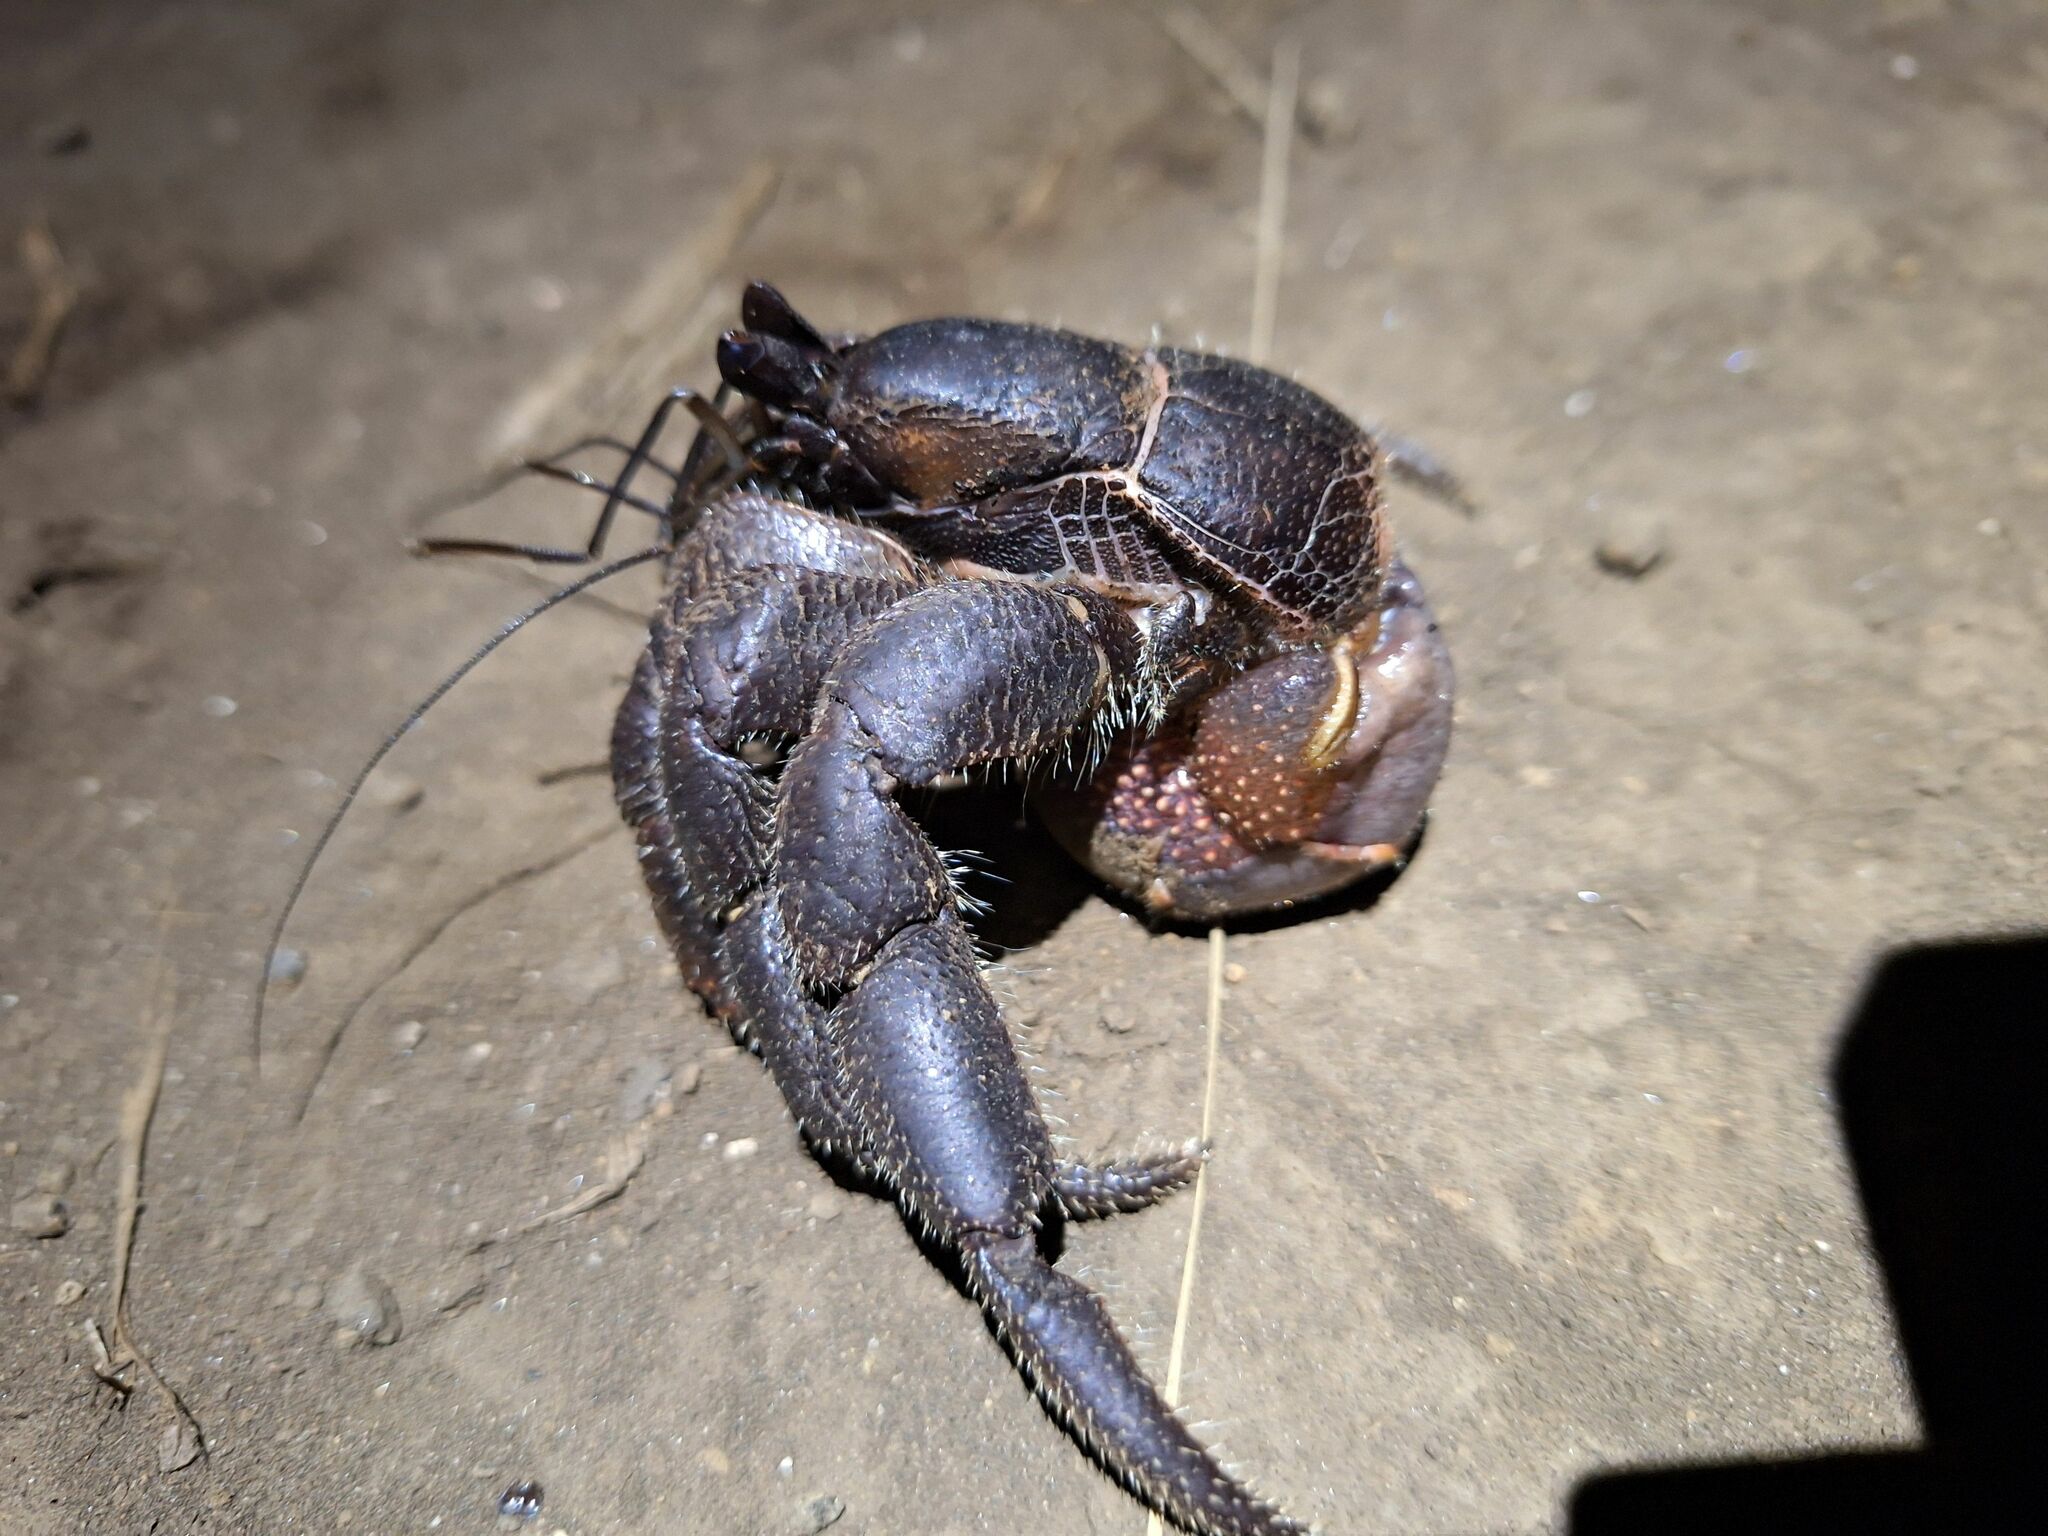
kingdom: Animalia
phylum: Arthropoda
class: Malacostraca
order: Decapoda
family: Coenobitidae
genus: Coenobita
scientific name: Coenobita spinosus
